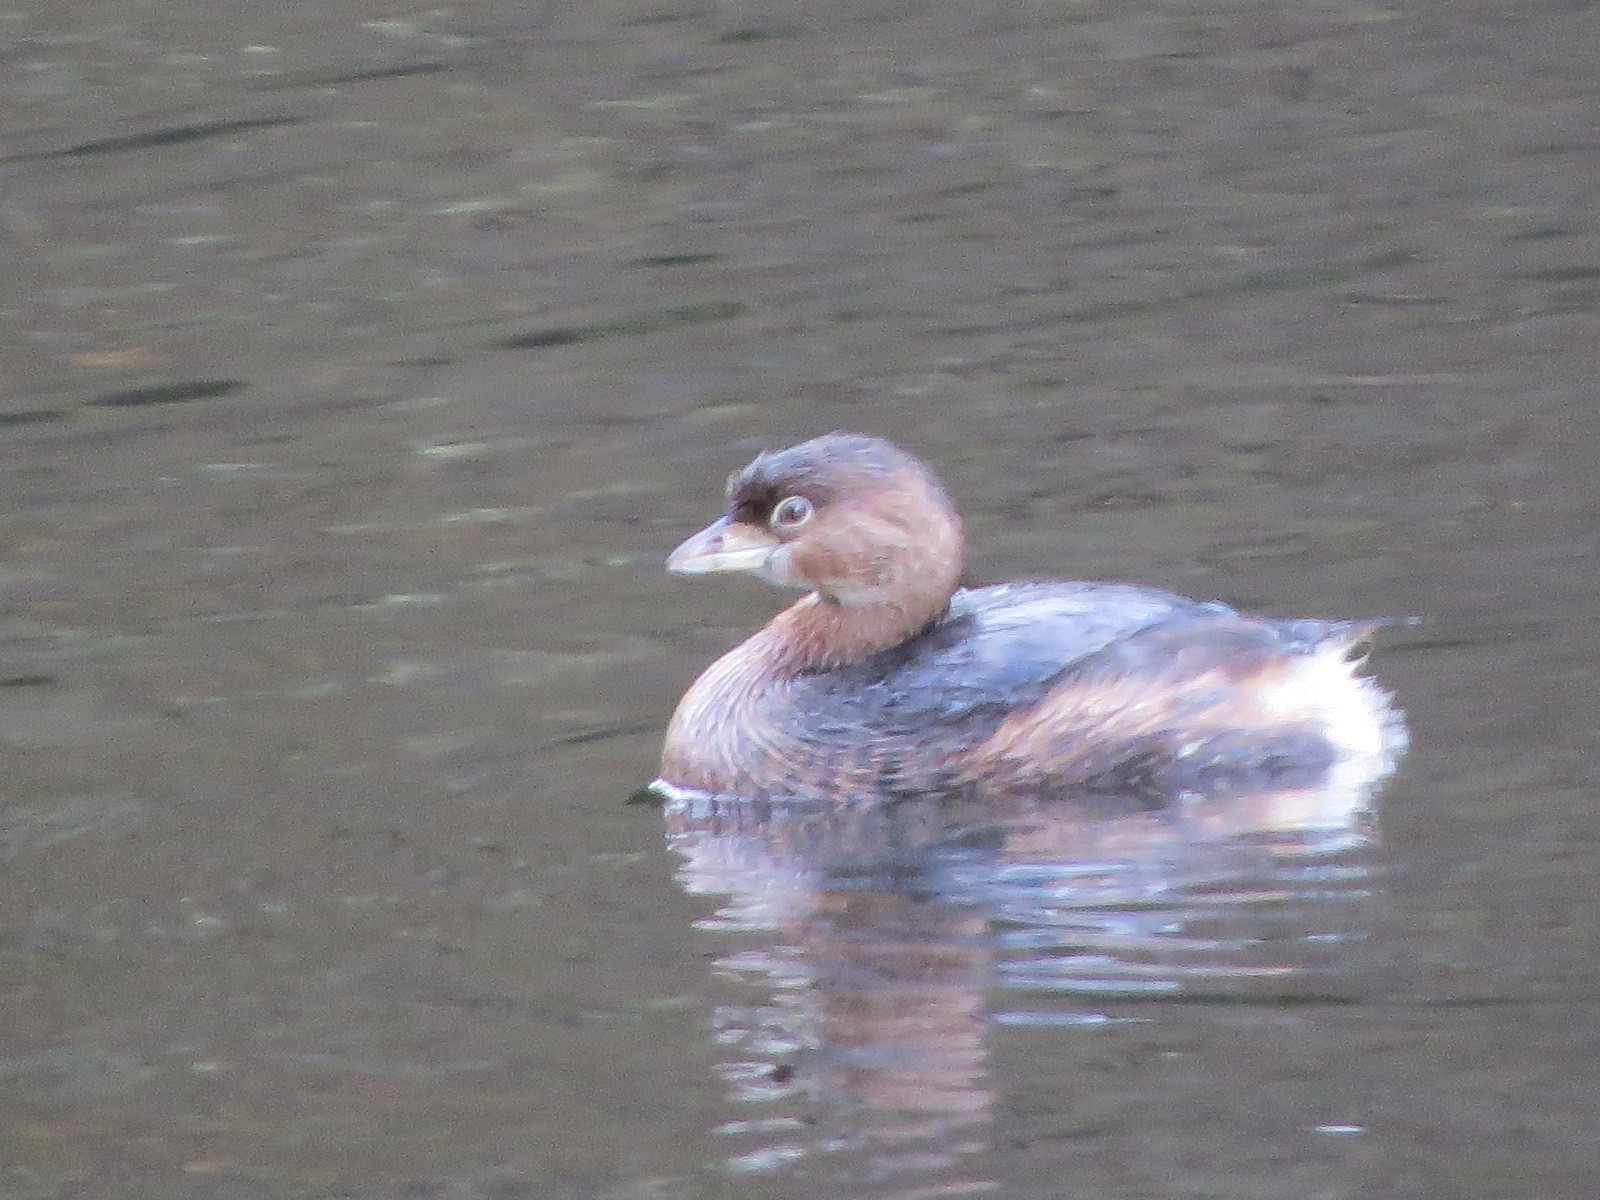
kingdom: Animalia
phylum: Chordata
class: Aves
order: Podicipediformes
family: Podicipedidae
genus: Podilymbus
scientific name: Podilymbus podiceps
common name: Pied-billed grebe
